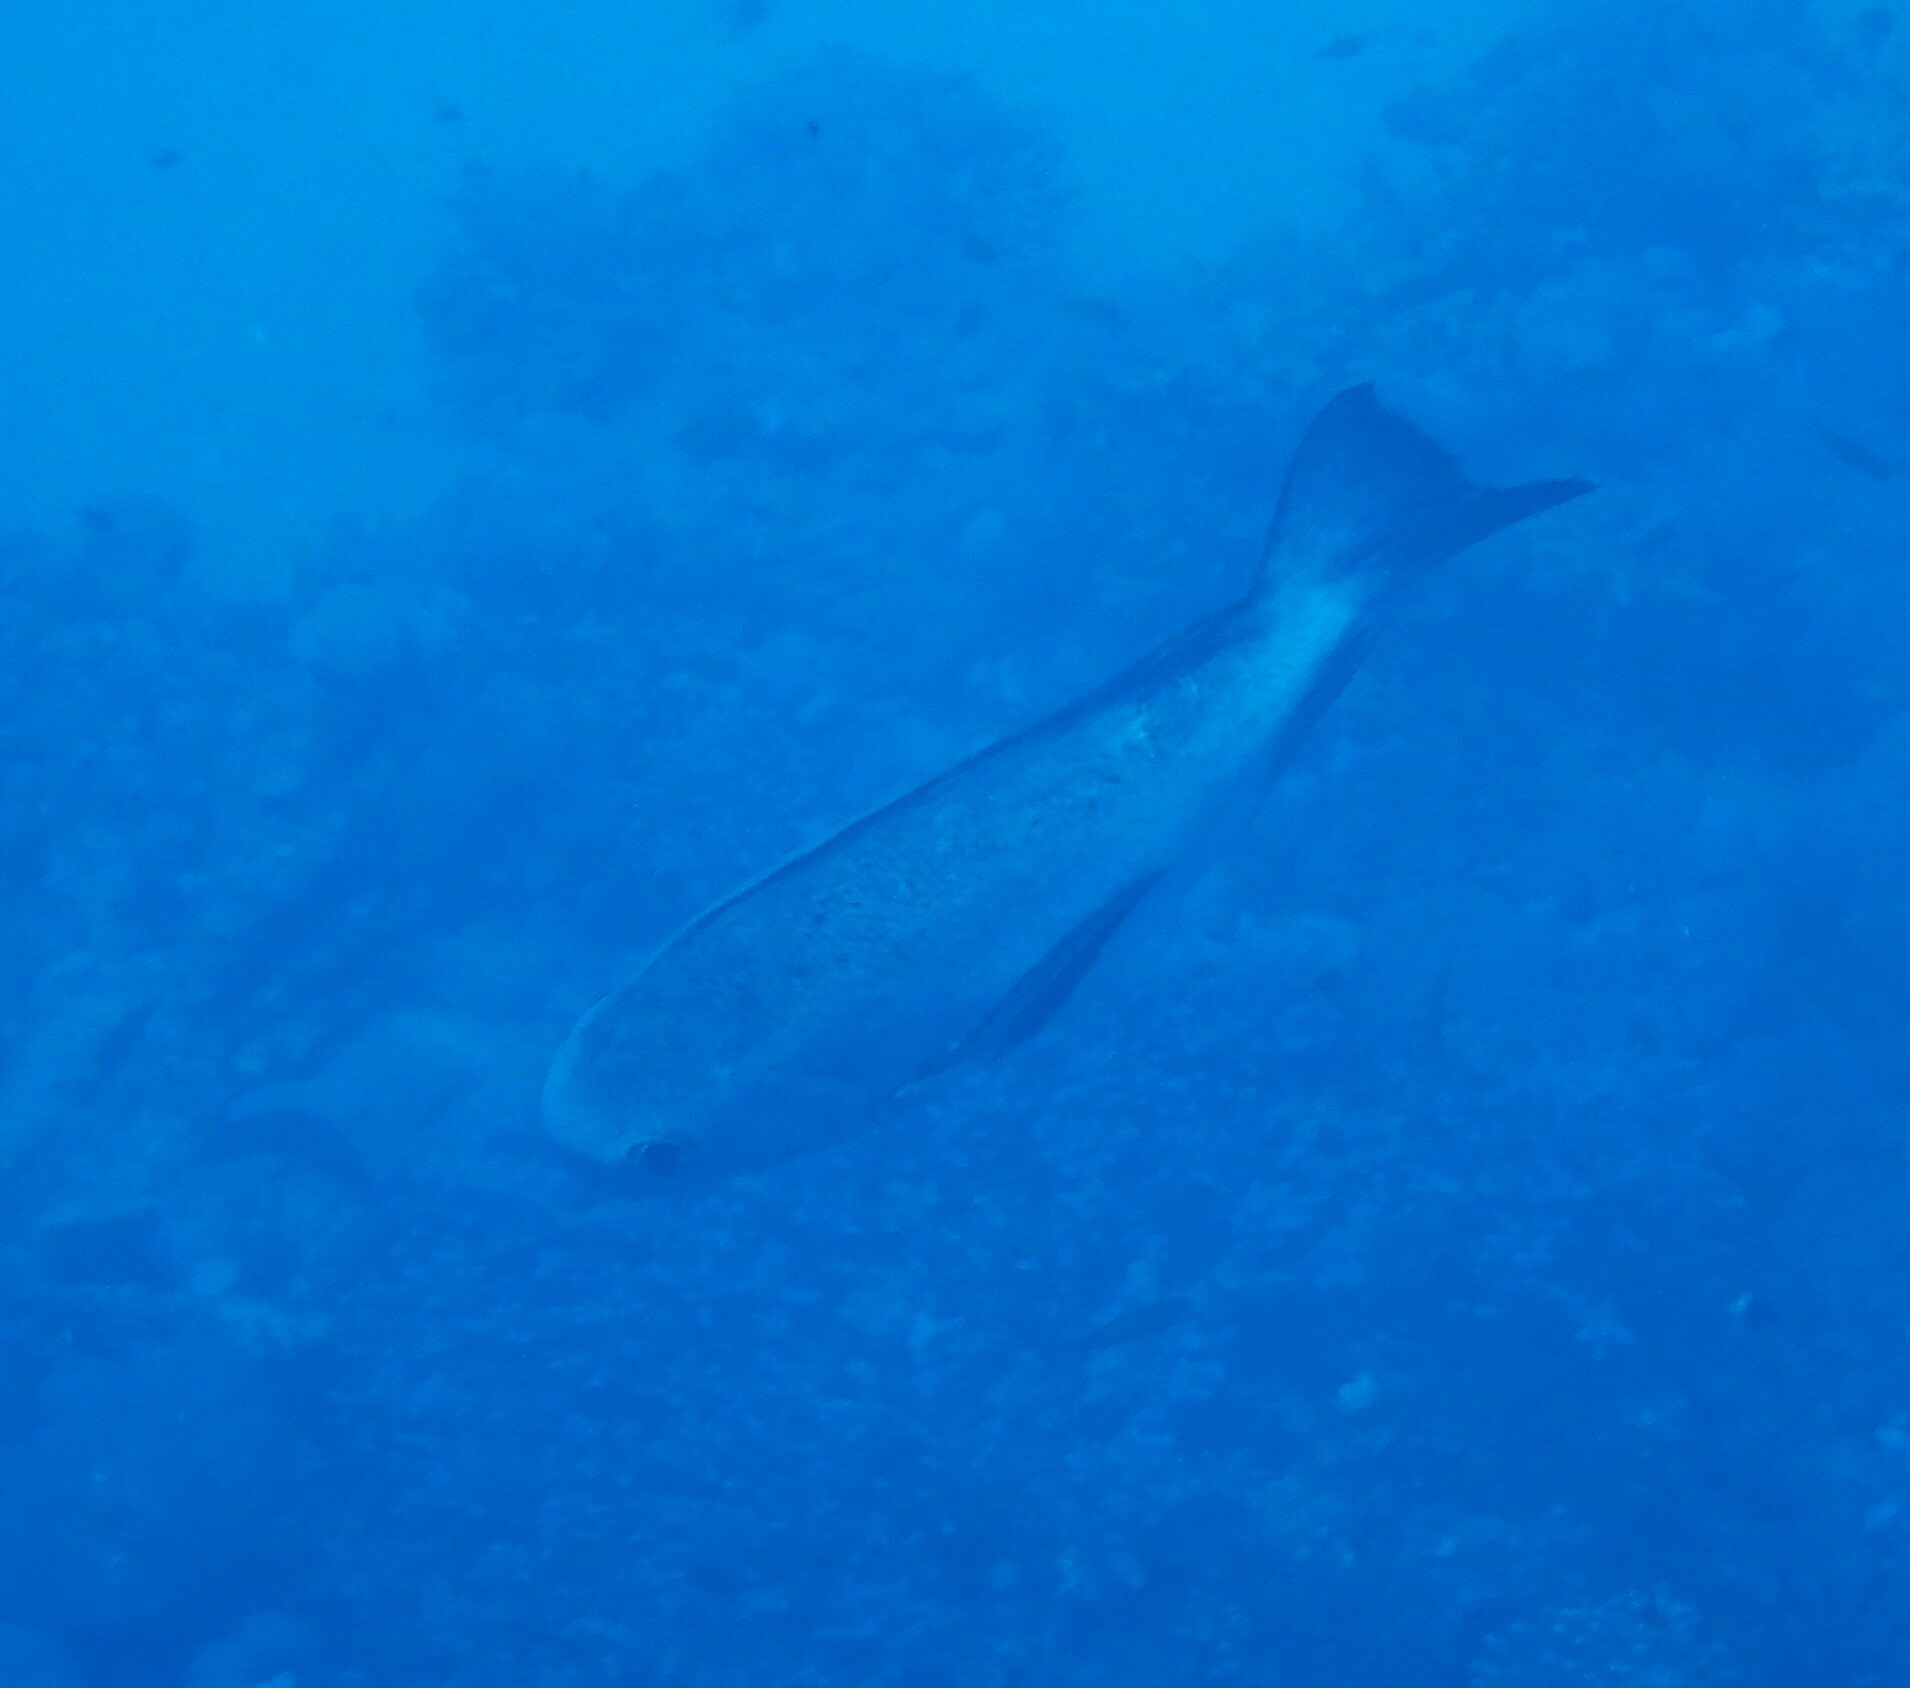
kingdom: Animalia
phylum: Chordata
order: Perciformes
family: Lutjanidae
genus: Macolor
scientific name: Macolor niger
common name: Black snapper
